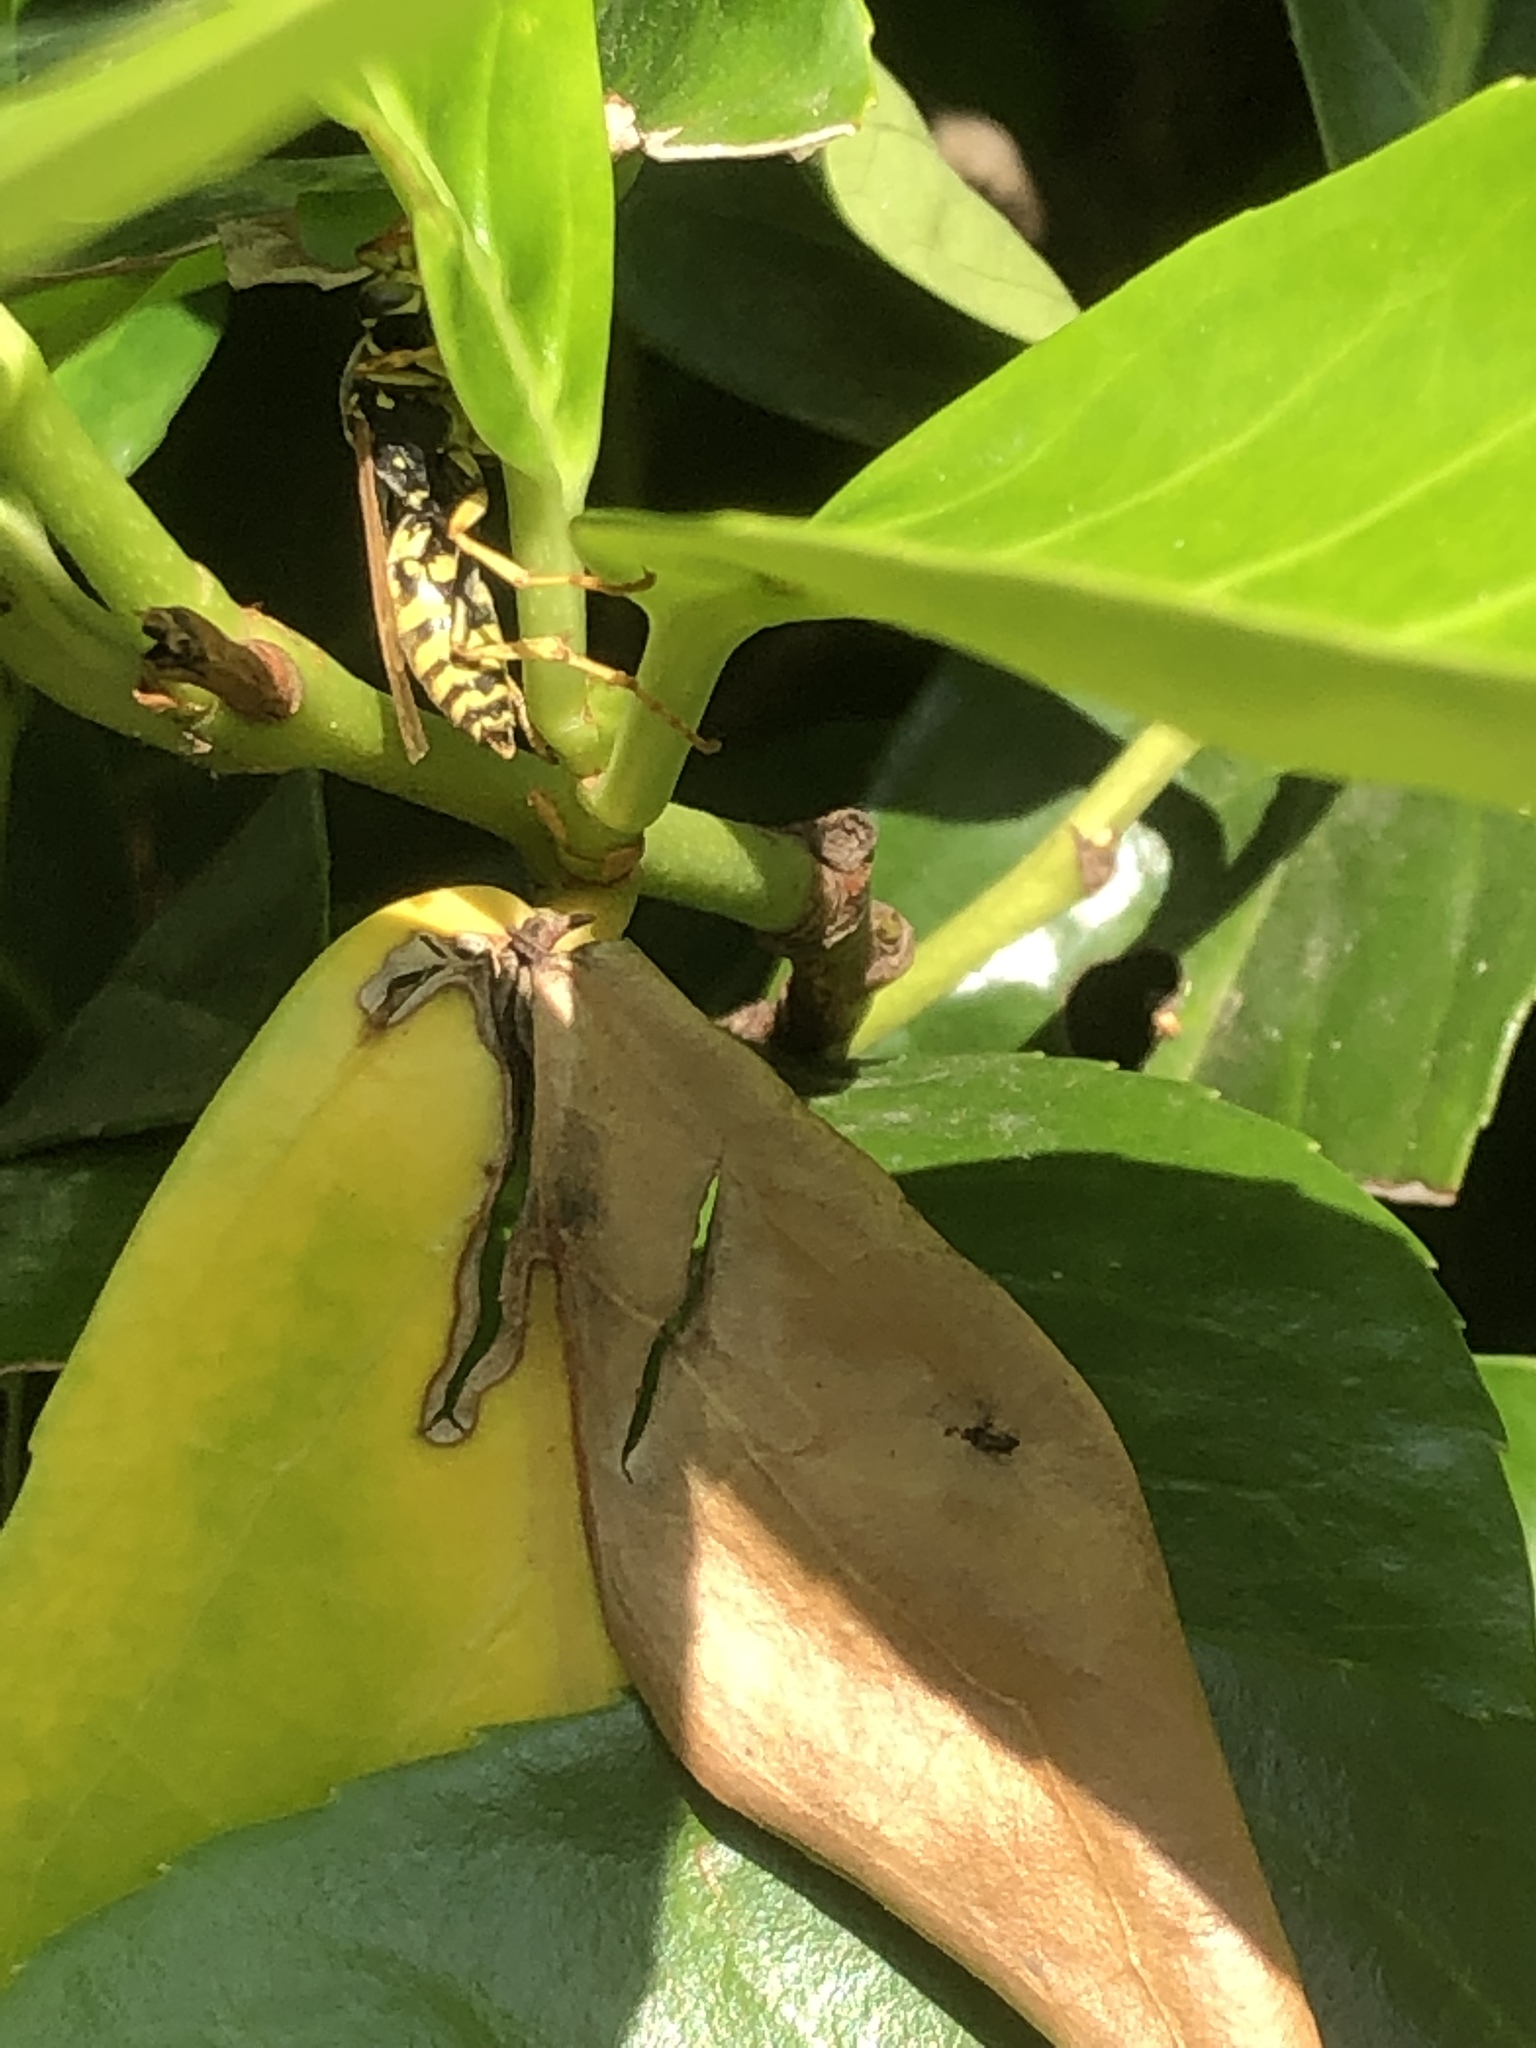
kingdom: Animalia
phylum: Arthropoda
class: Insecta
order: Hymenoptera
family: Eumenidae
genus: Polistes
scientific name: Polistes dominula
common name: Paper wasp
